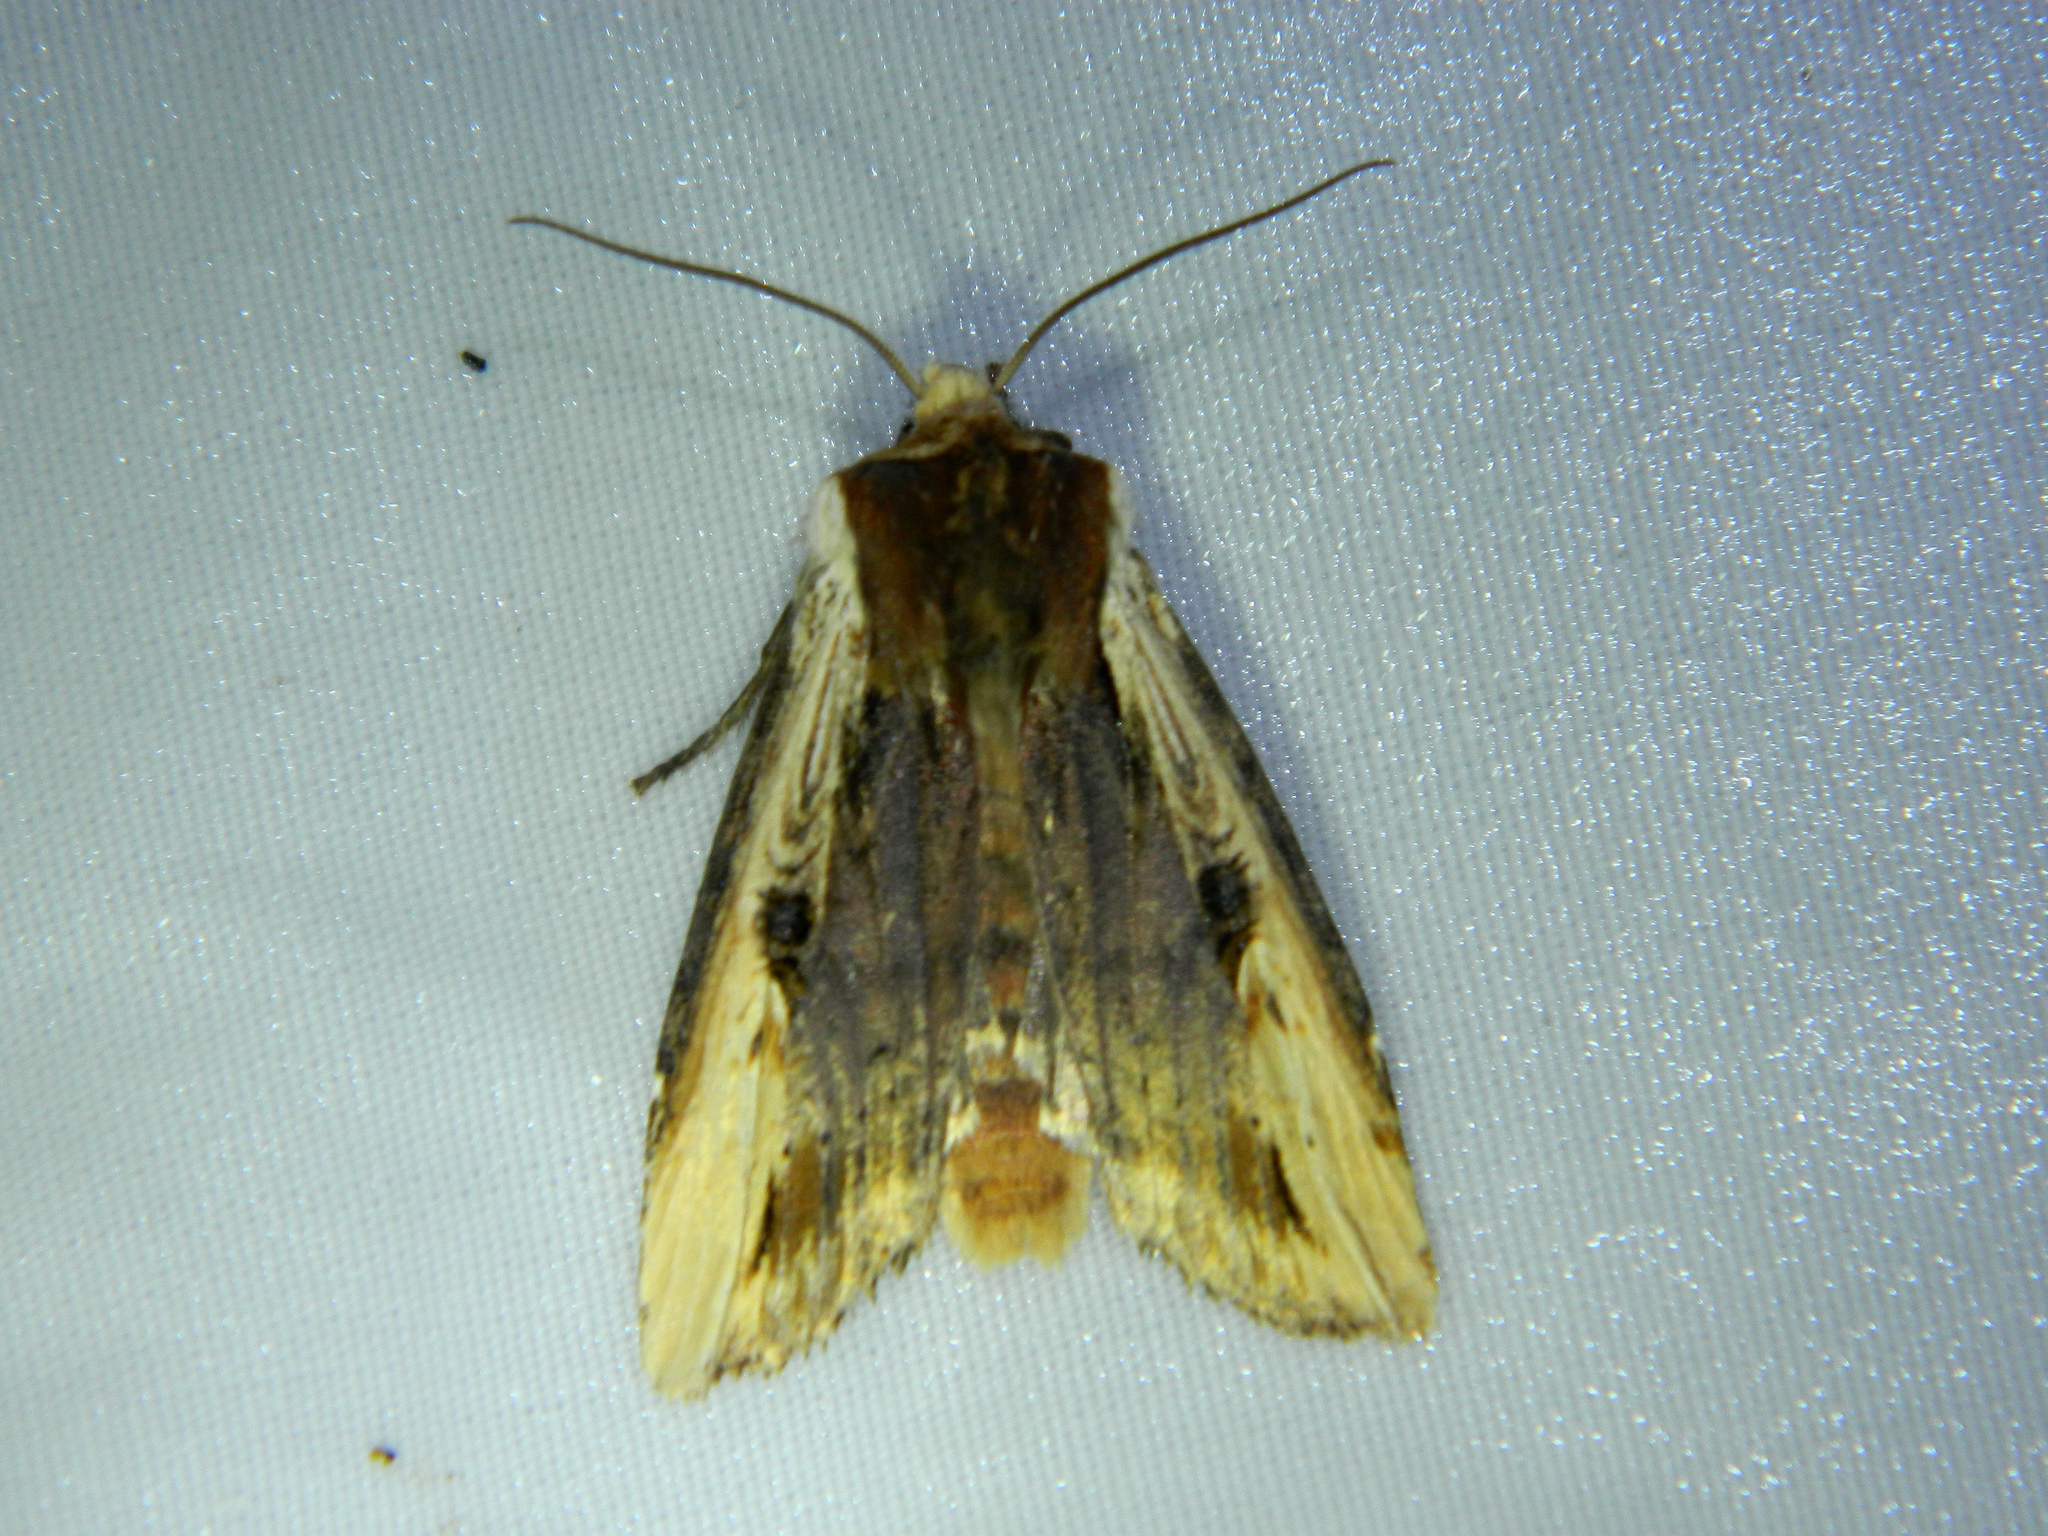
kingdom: Animalia
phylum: Arthropoda
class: Insecta
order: Lepidoptera
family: Noctuidae
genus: Xylena
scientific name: Xylena curvimacula
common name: Dot-and-dash swordgrass moth
